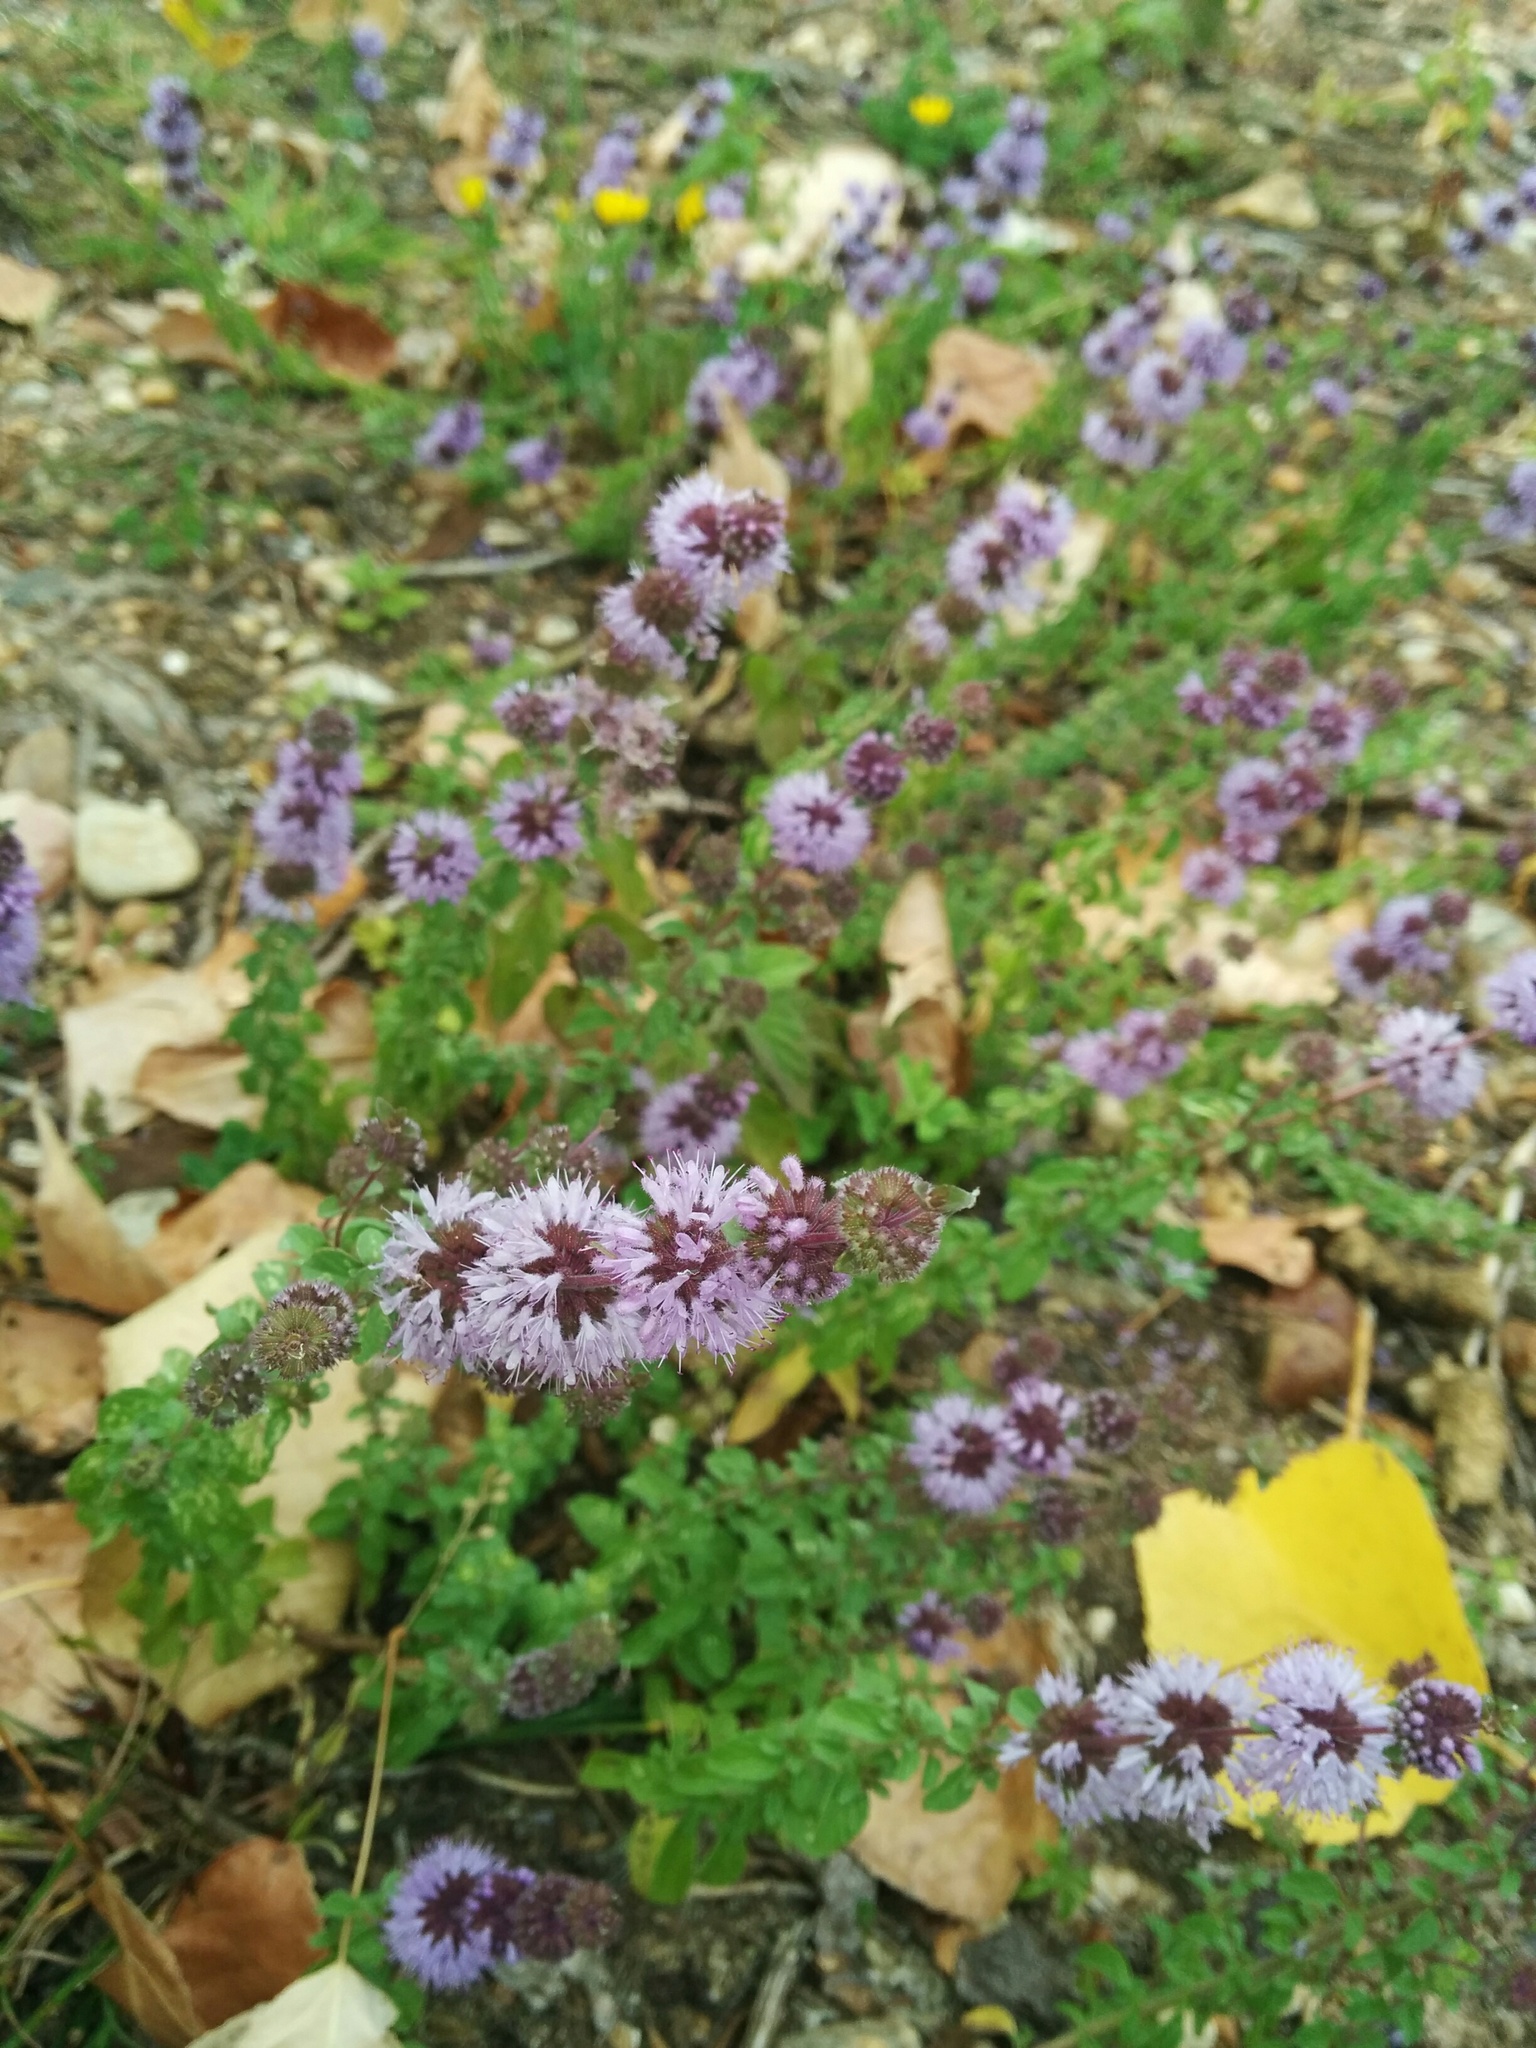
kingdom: Plantae
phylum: Tracheophyta
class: Magnoliopsida
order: Lamiales
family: Lamiaceae
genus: Mentha
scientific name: Mentha pulegium
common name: Pennyroyal
